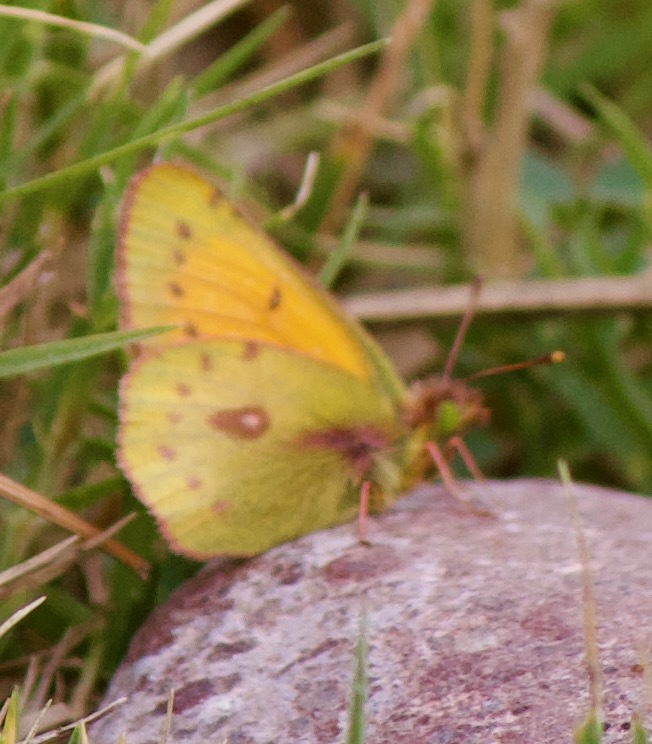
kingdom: Animalia
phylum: Arthropoda
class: Insecta
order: Lepidoptera
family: Pieridae
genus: Colias
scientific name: Colias vauthierii
